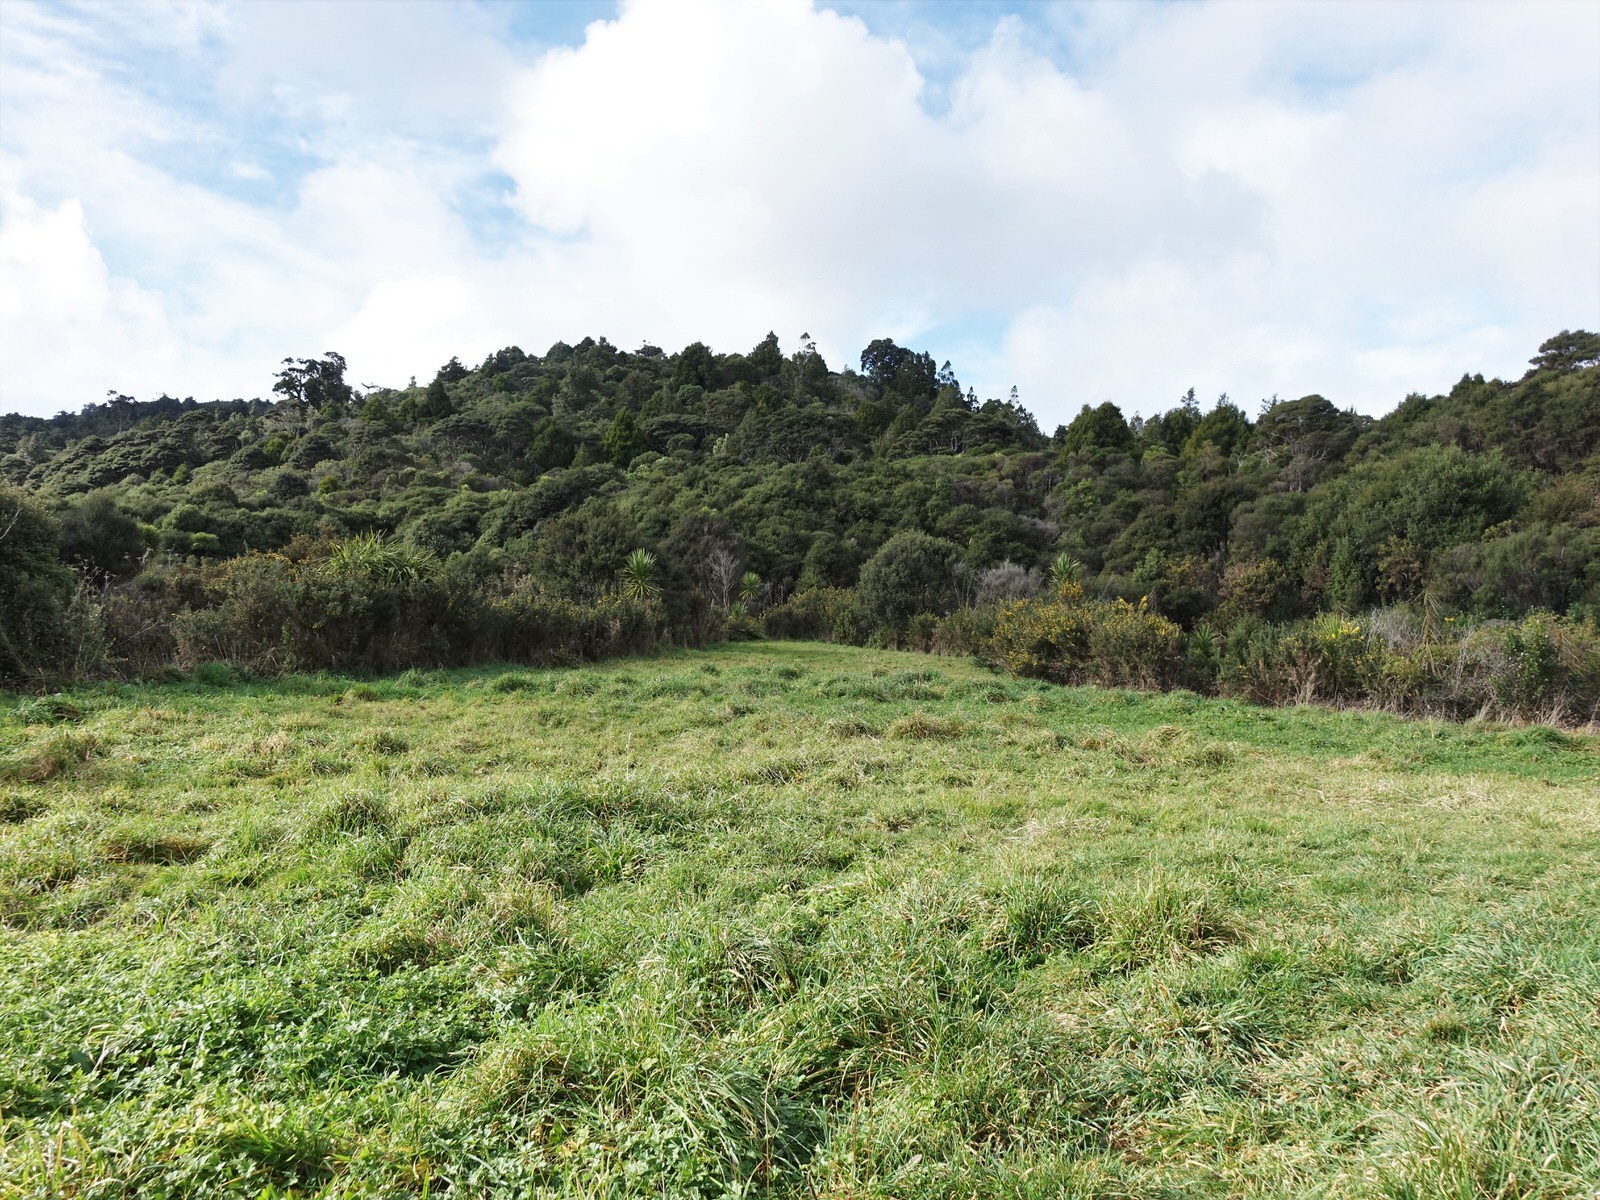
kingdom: Plantae
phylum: Tracheophyta
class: Magnoliopsida
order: Fabales
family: Fabaceae
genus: Ulex
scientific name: Ulex europaeus
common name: Common gorse
